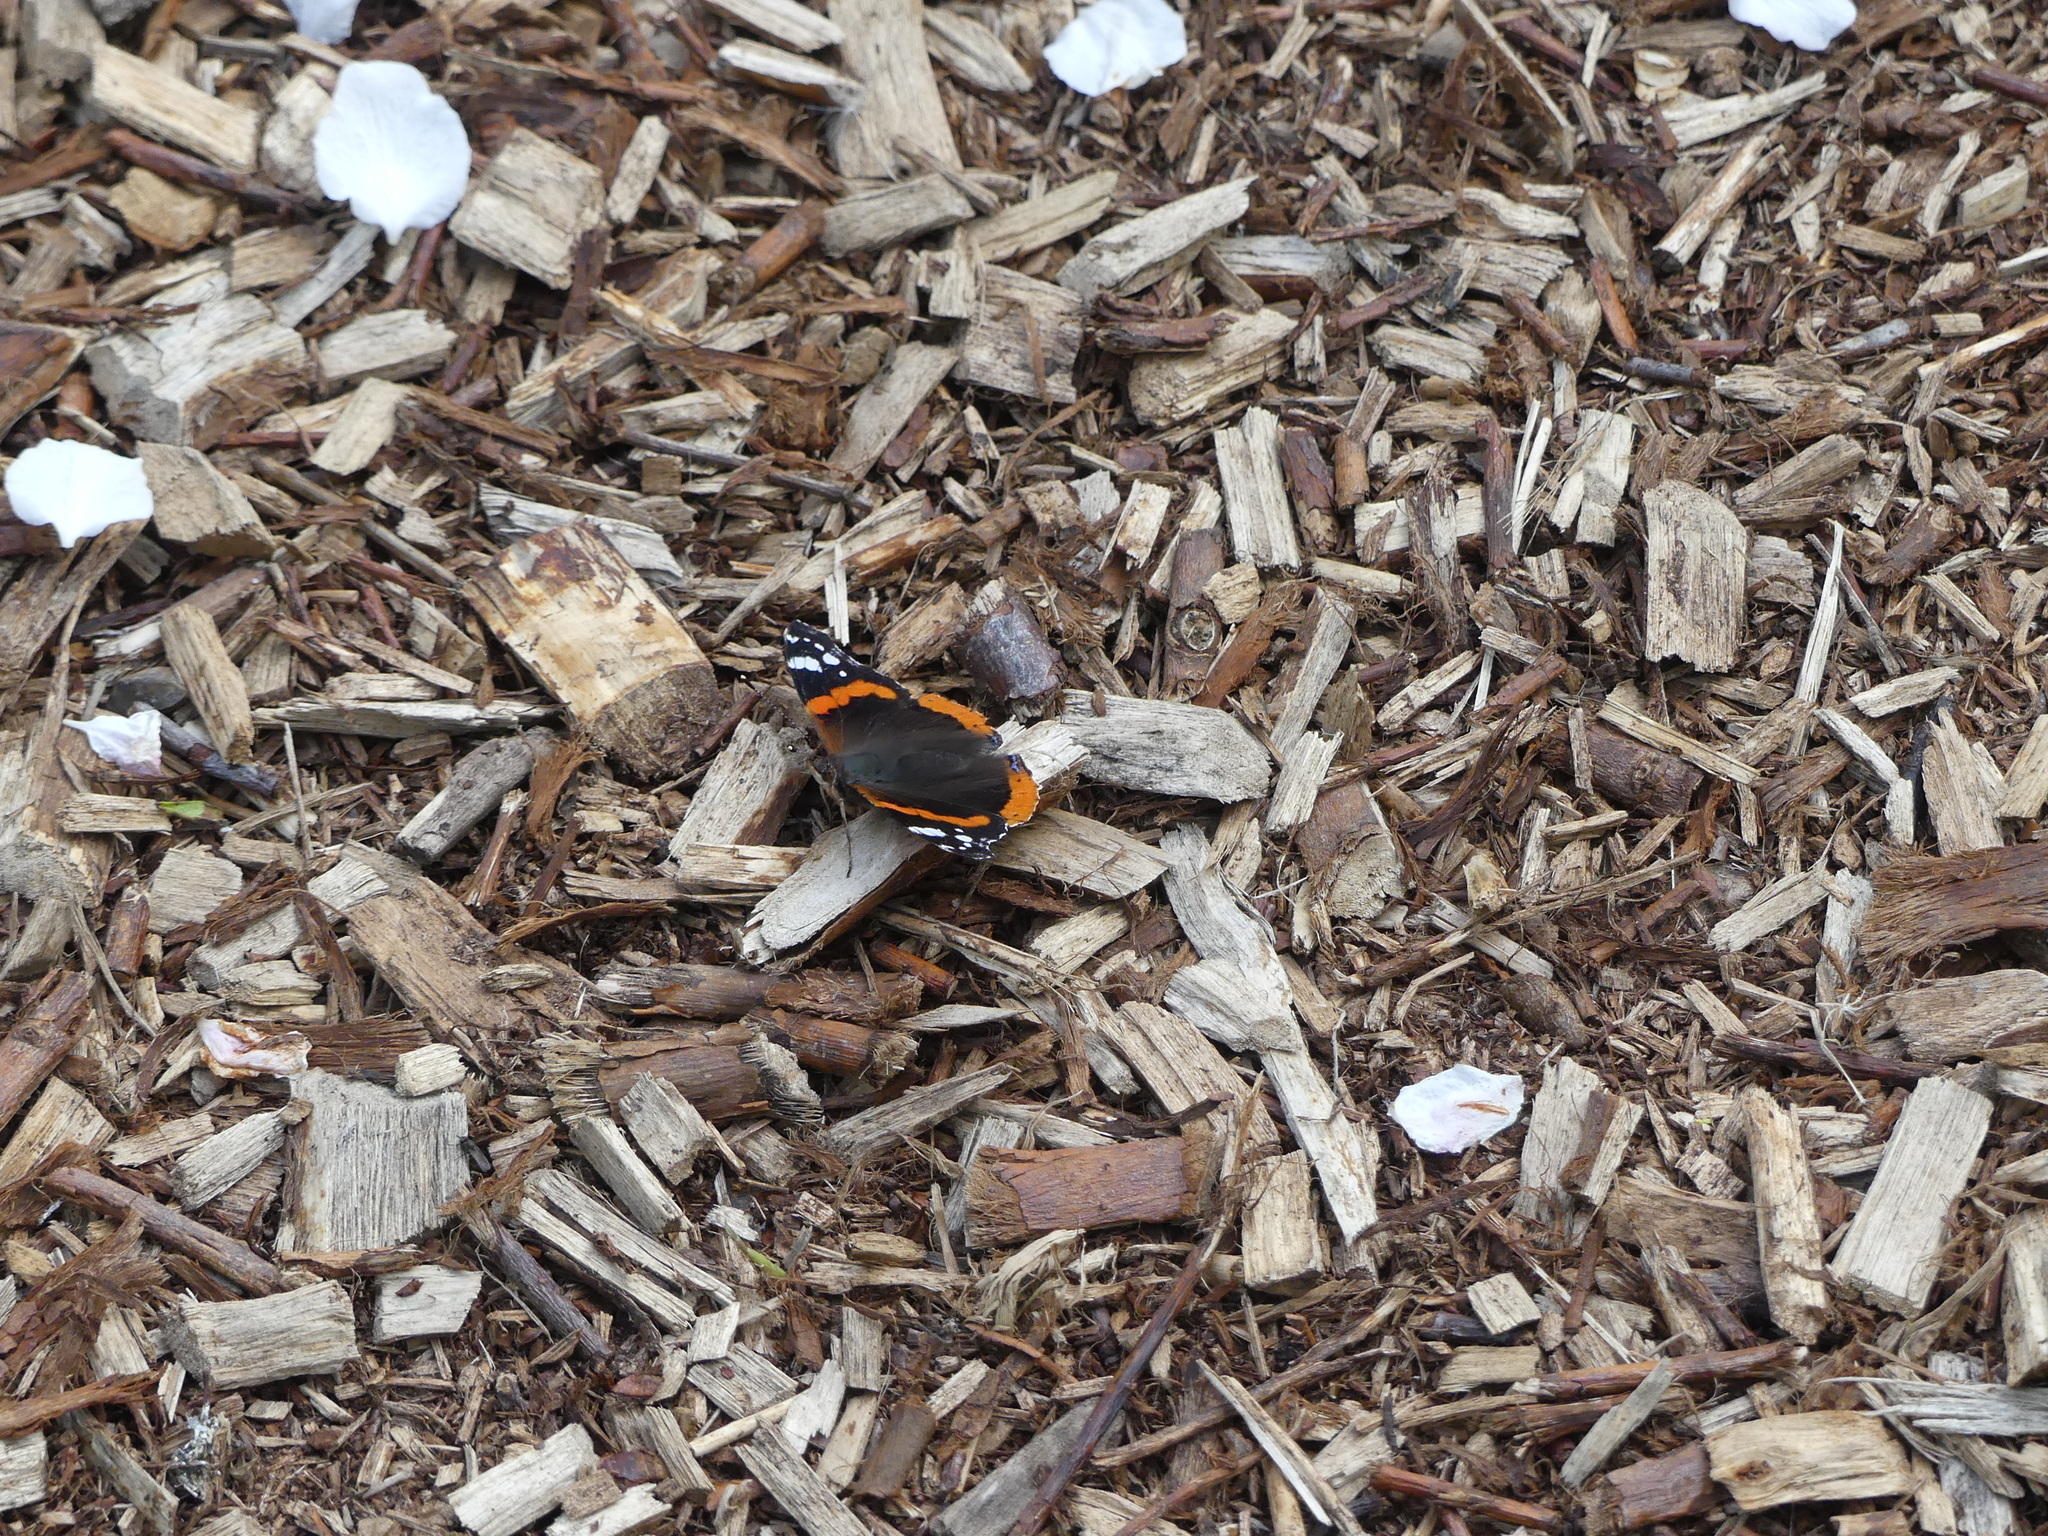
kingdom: Animalia
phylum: Arthropoda
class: Insecta
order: Lepidoptera
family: Nymphalidae
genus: Vanessa
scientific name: Vanessa atalanta
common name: Red admiral
